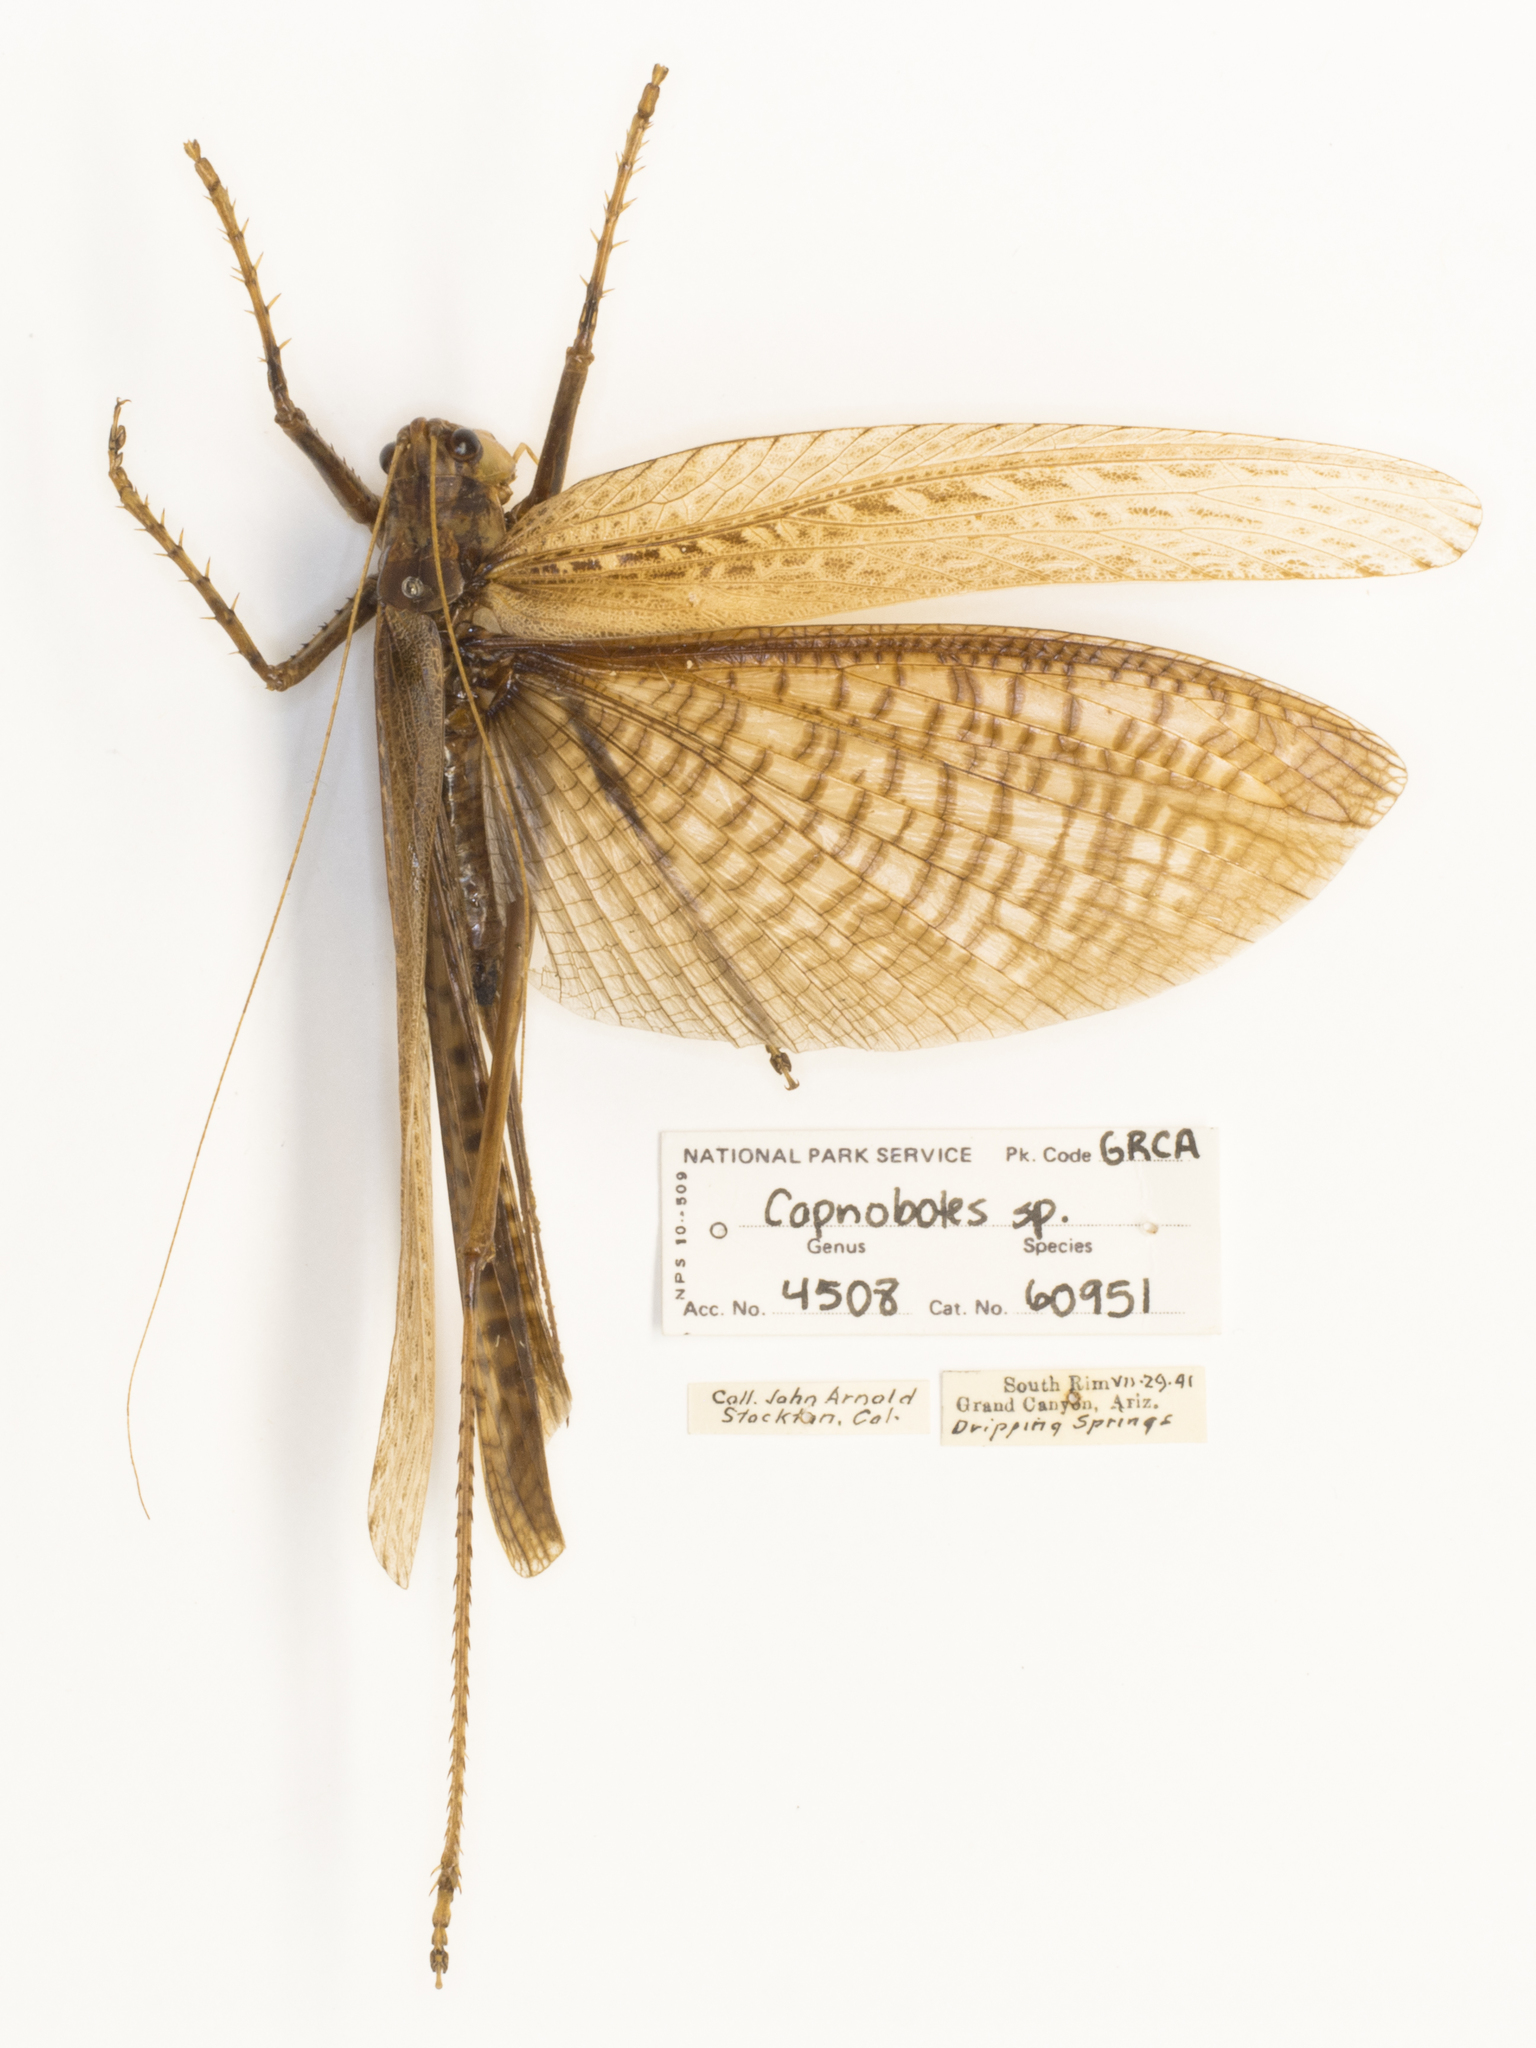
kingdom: Animalia
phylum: Arthropoda
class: Insecta
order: Orthoptera
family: Tettigoniidae
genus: Capnobotes
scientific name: Capnobotes fuliginosus
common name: Sooty longwing
